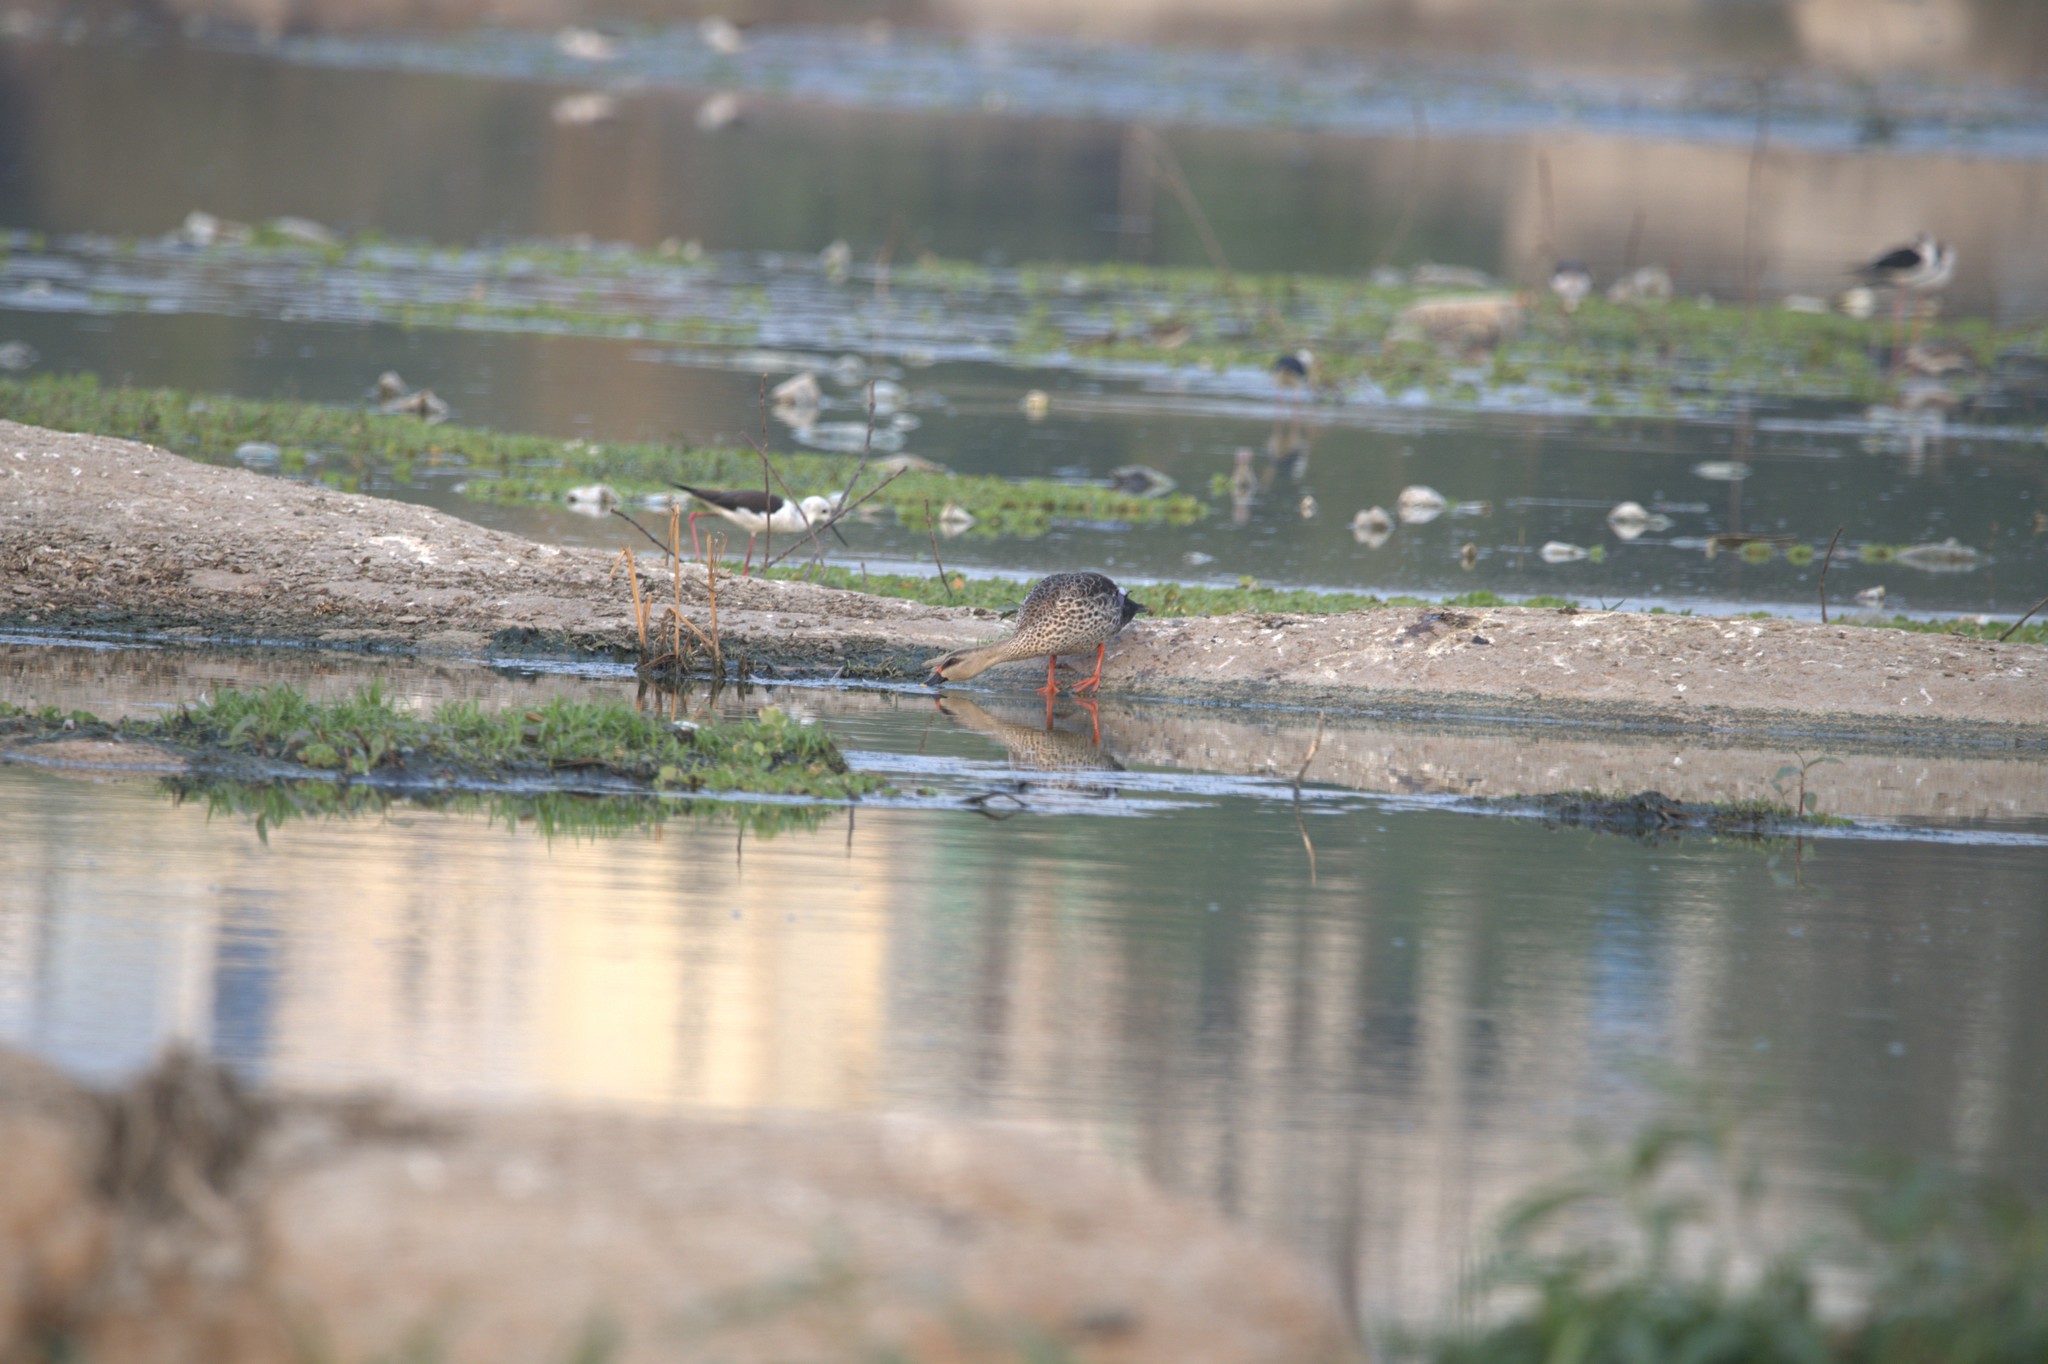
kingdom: Animalia
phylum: Chordata
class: Aves
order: Anseriformes
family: Anatidae
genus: Anas
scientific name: Anas poecilorhyncha
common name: Indian spot-billed duck
